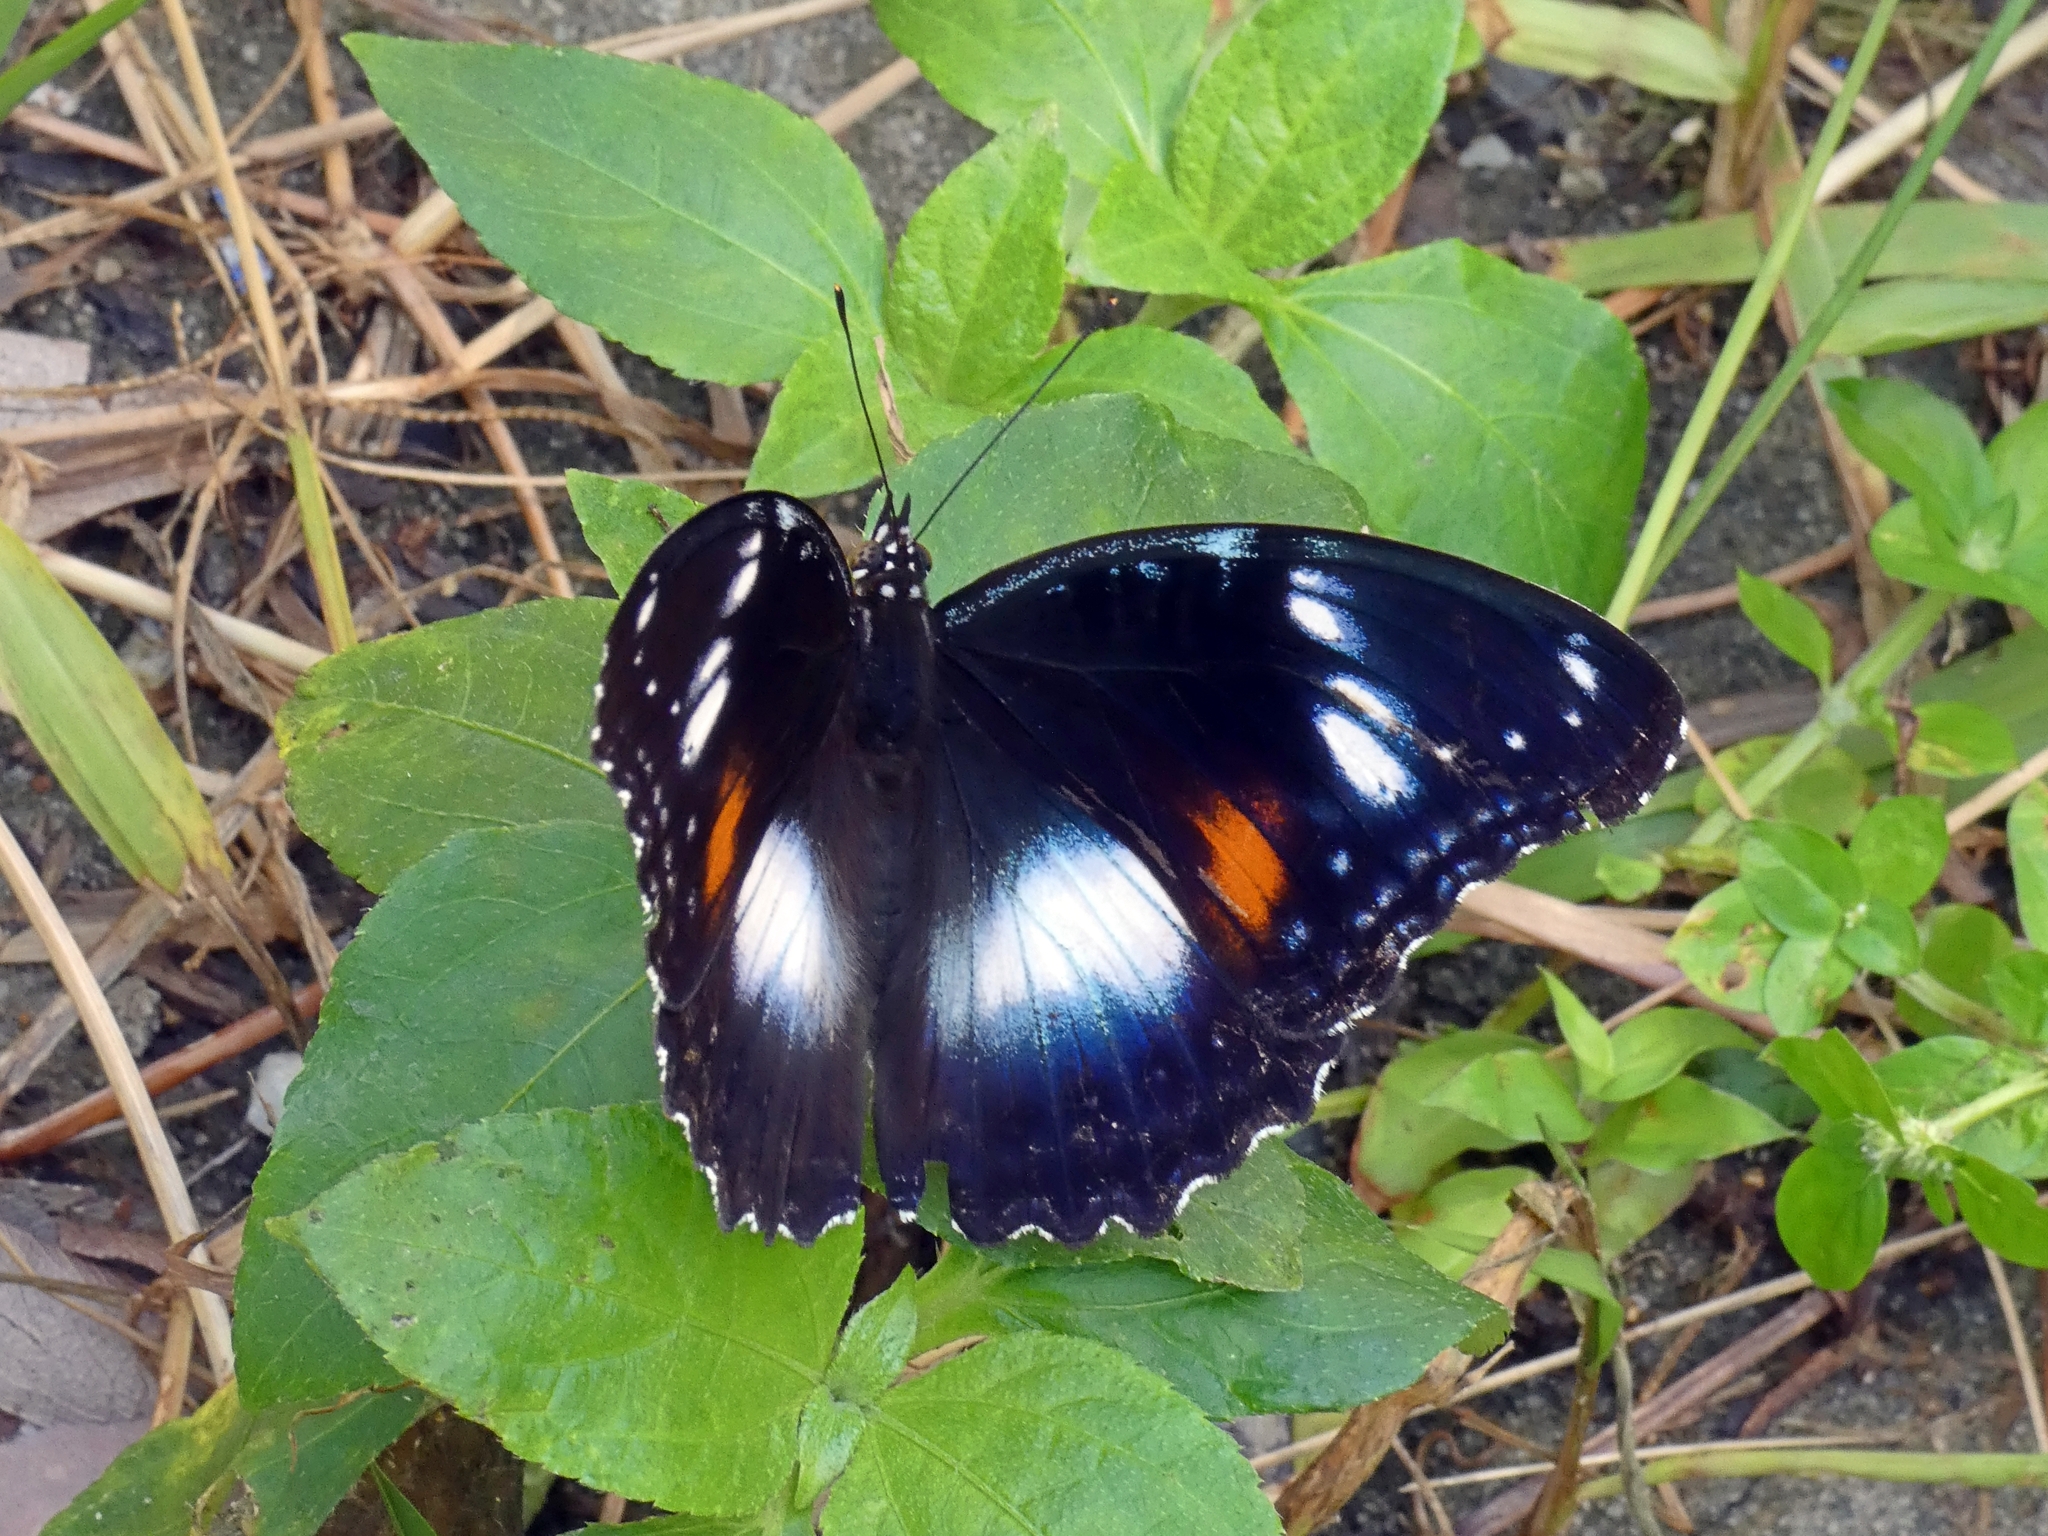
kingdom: Animalia
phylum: Arthropoda
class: Insecta
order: Lepidoptera
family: Nymphalidae
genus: Hypolimnas
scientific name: Hypolimnas bolina
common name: Great eggfly
